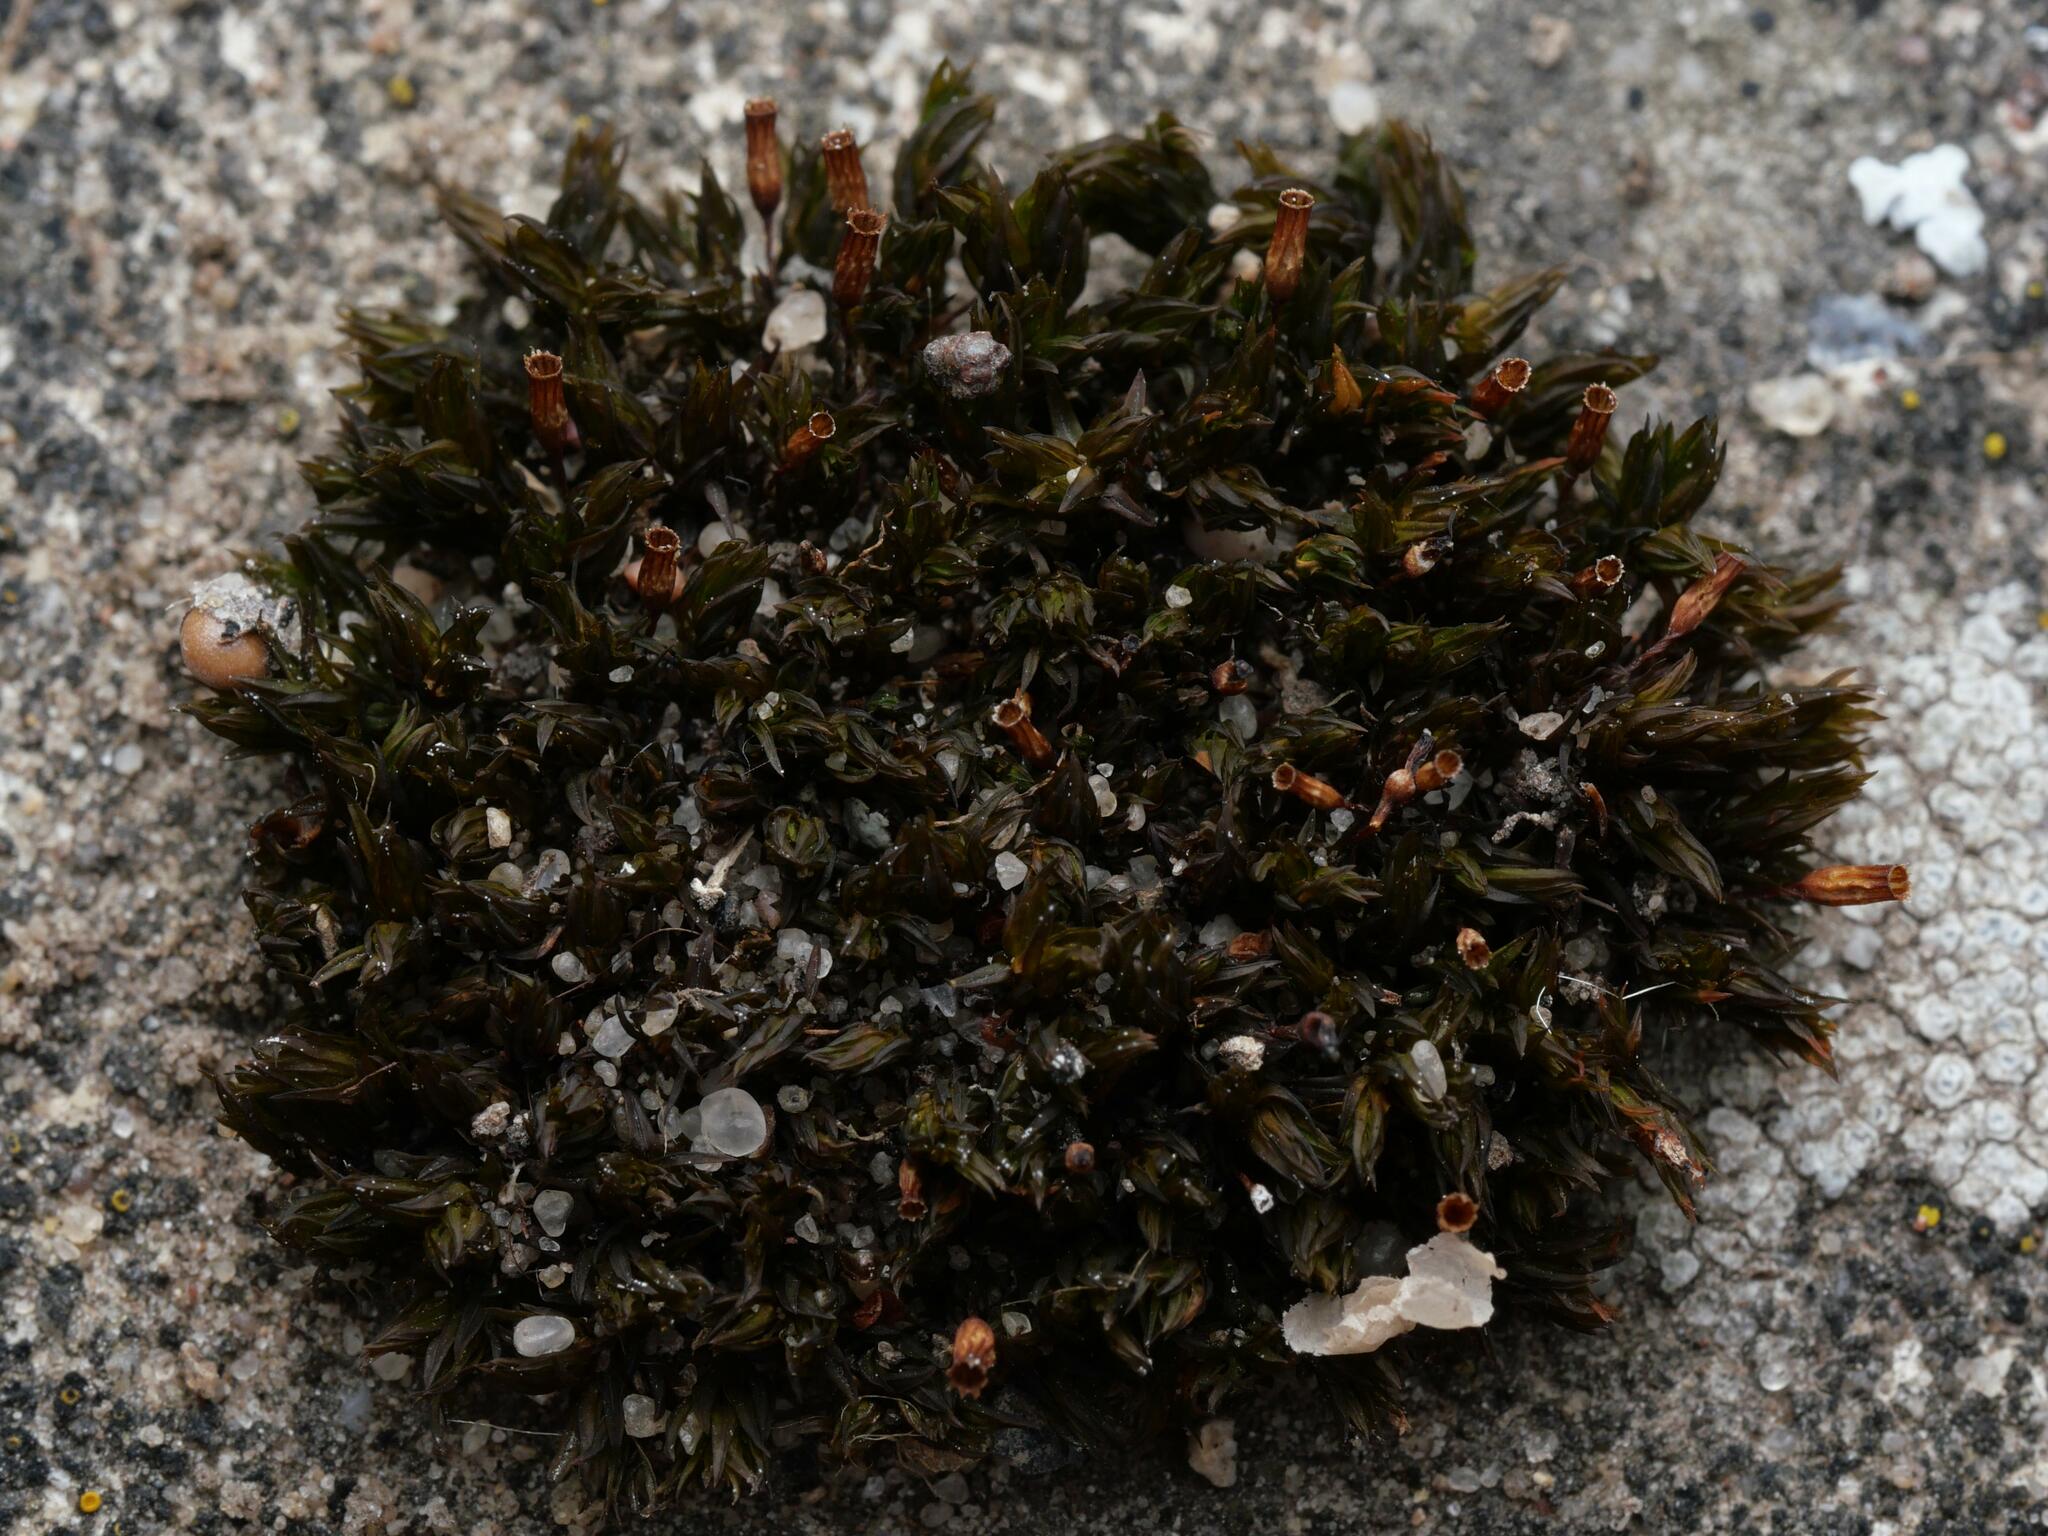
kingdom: Plantae
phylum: Bryophyta
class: Bryopsida
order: Orthotrichales
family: Orthotrichaceae
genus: Orthotrichum
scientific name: Orthotrichum anomalum
